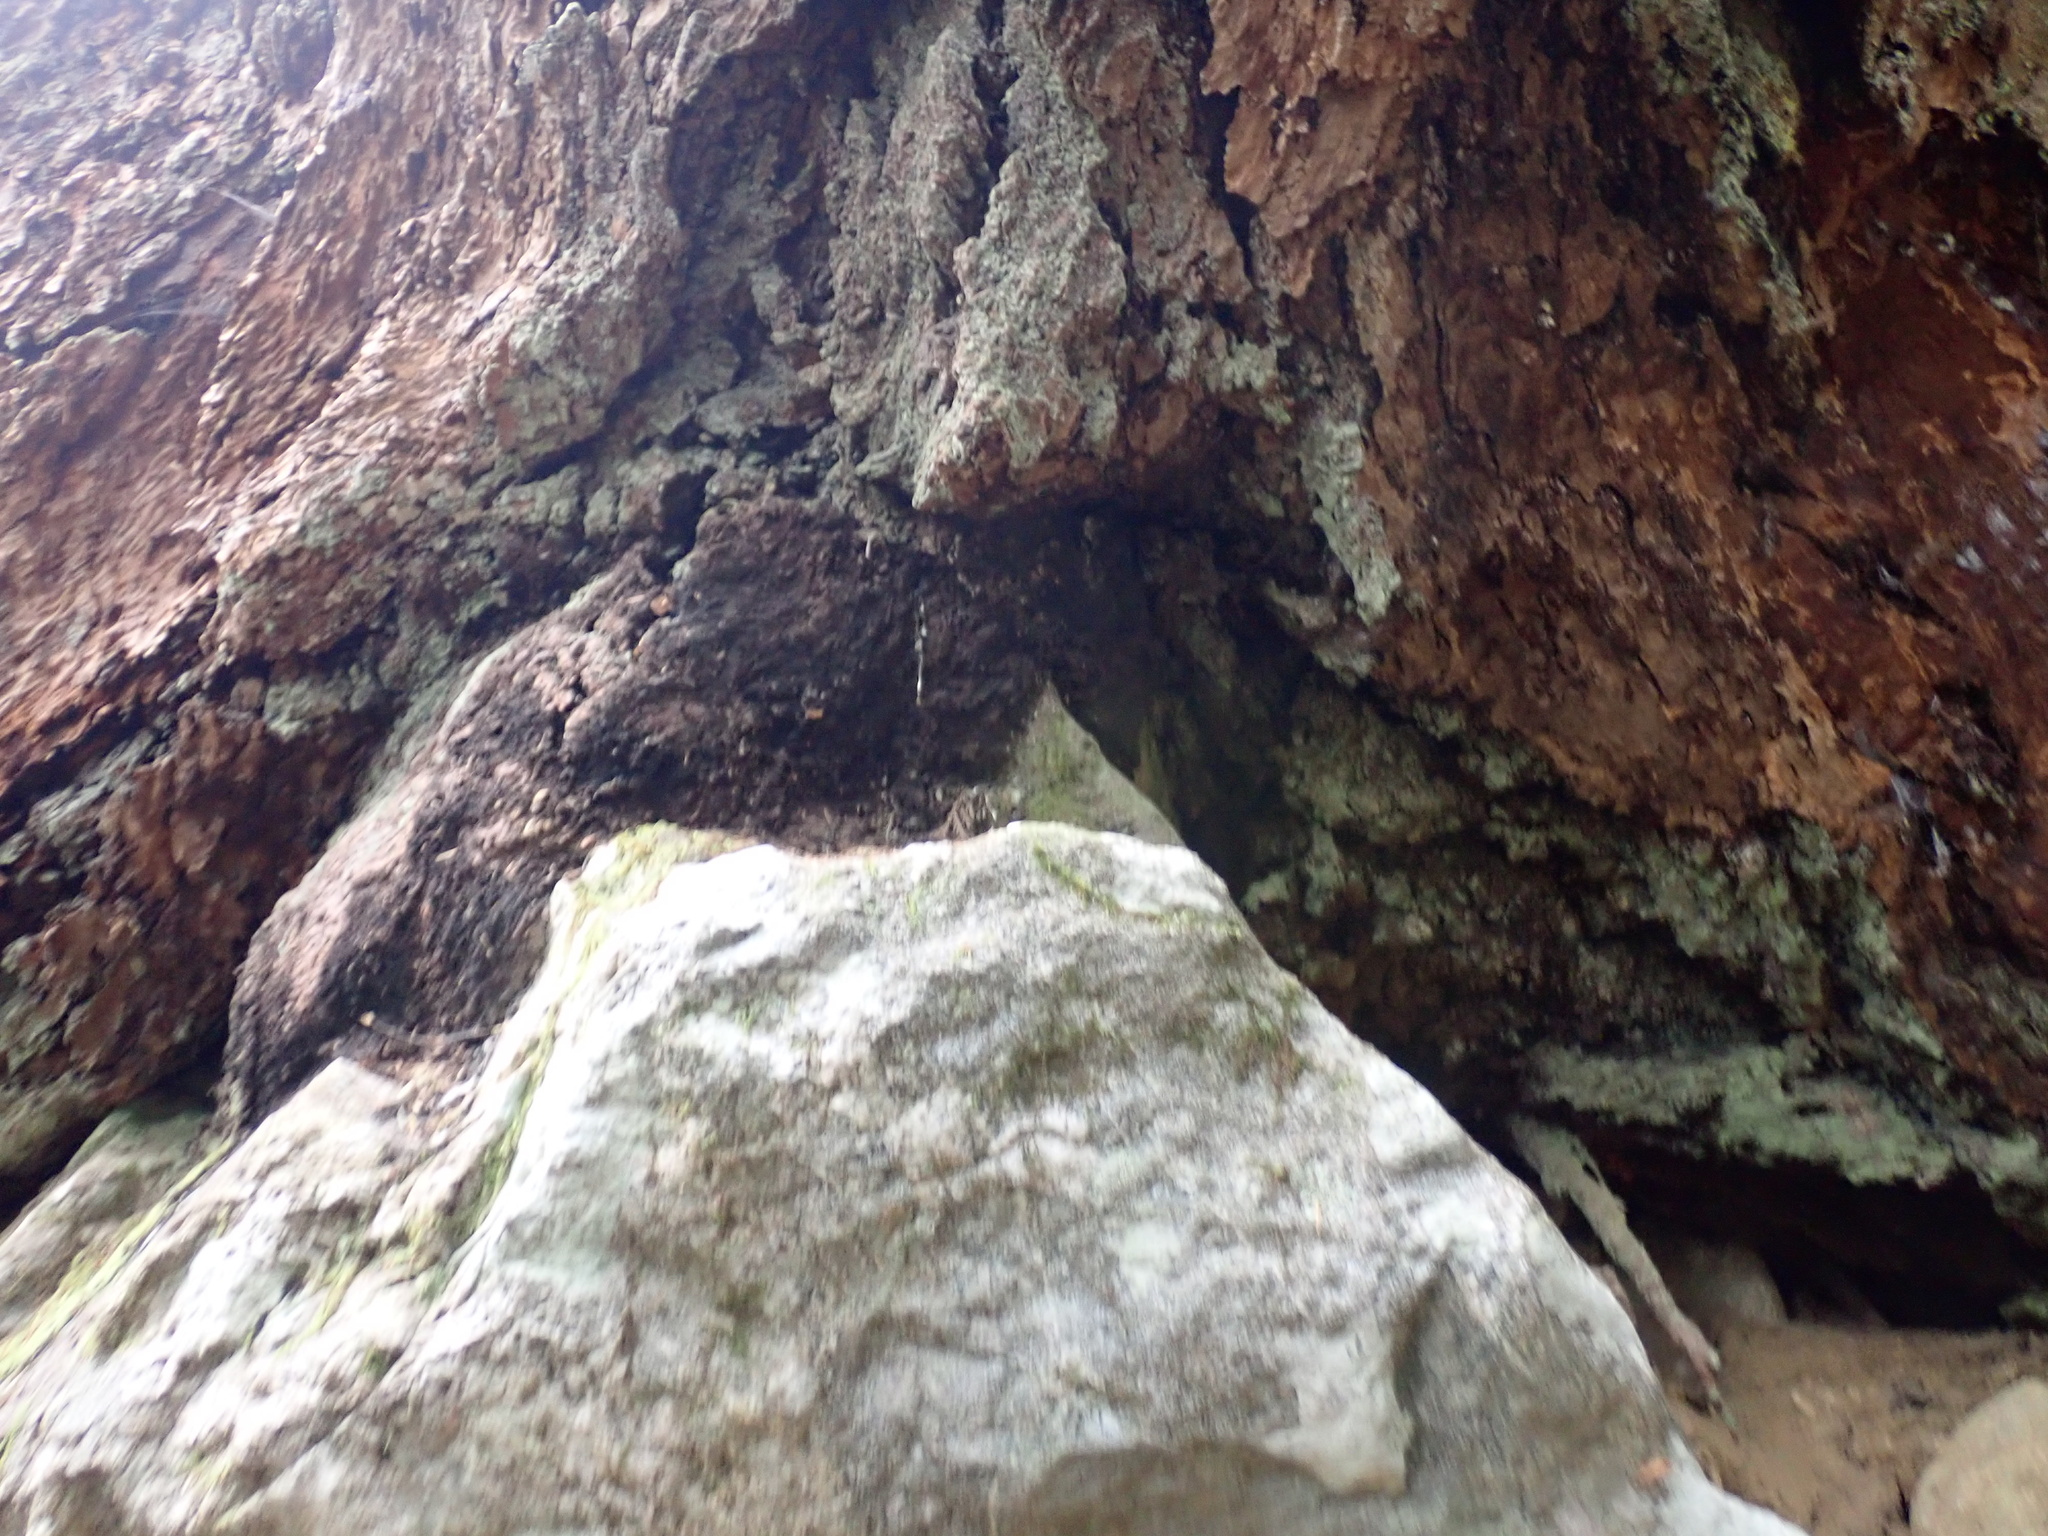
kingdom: Plantae
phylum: Tracheophyta
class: Pinopsida
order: Pinales
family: Pinaceae
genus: Pseudotsuga
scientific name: Pseudotsuga menziesii
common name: Douglas fir
